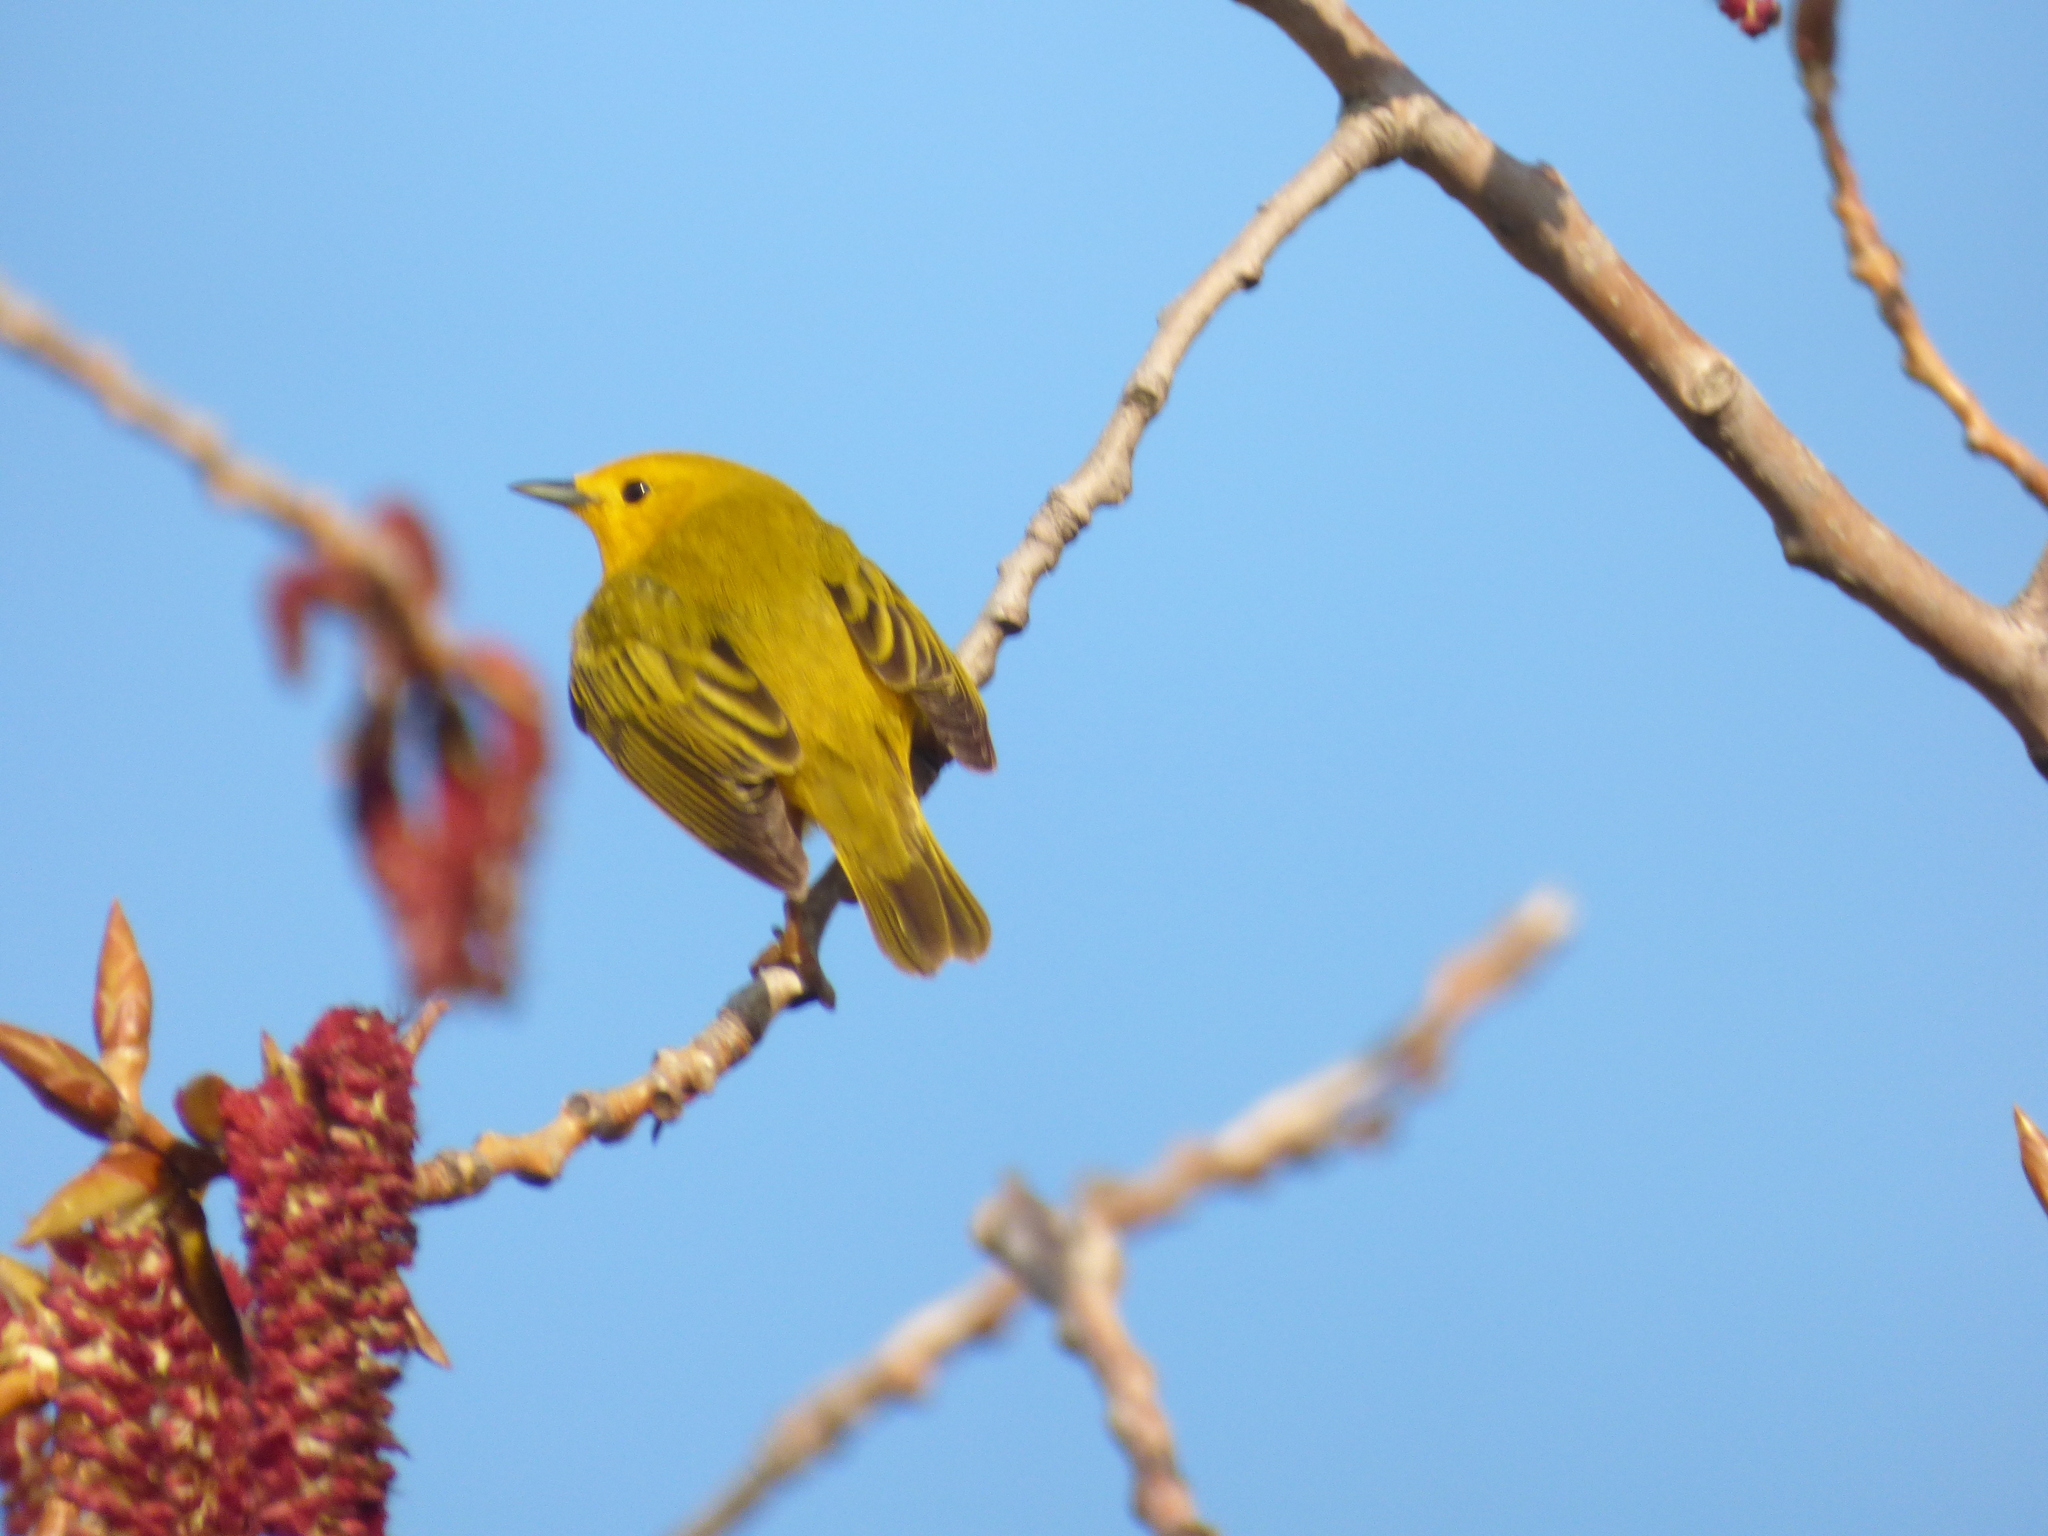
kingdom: Animalia
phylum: Chordata
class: Aves
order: Passeriformes
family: Parulidae
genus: Setophaga
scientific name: Setophaga petechia
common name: Yellow warbler
